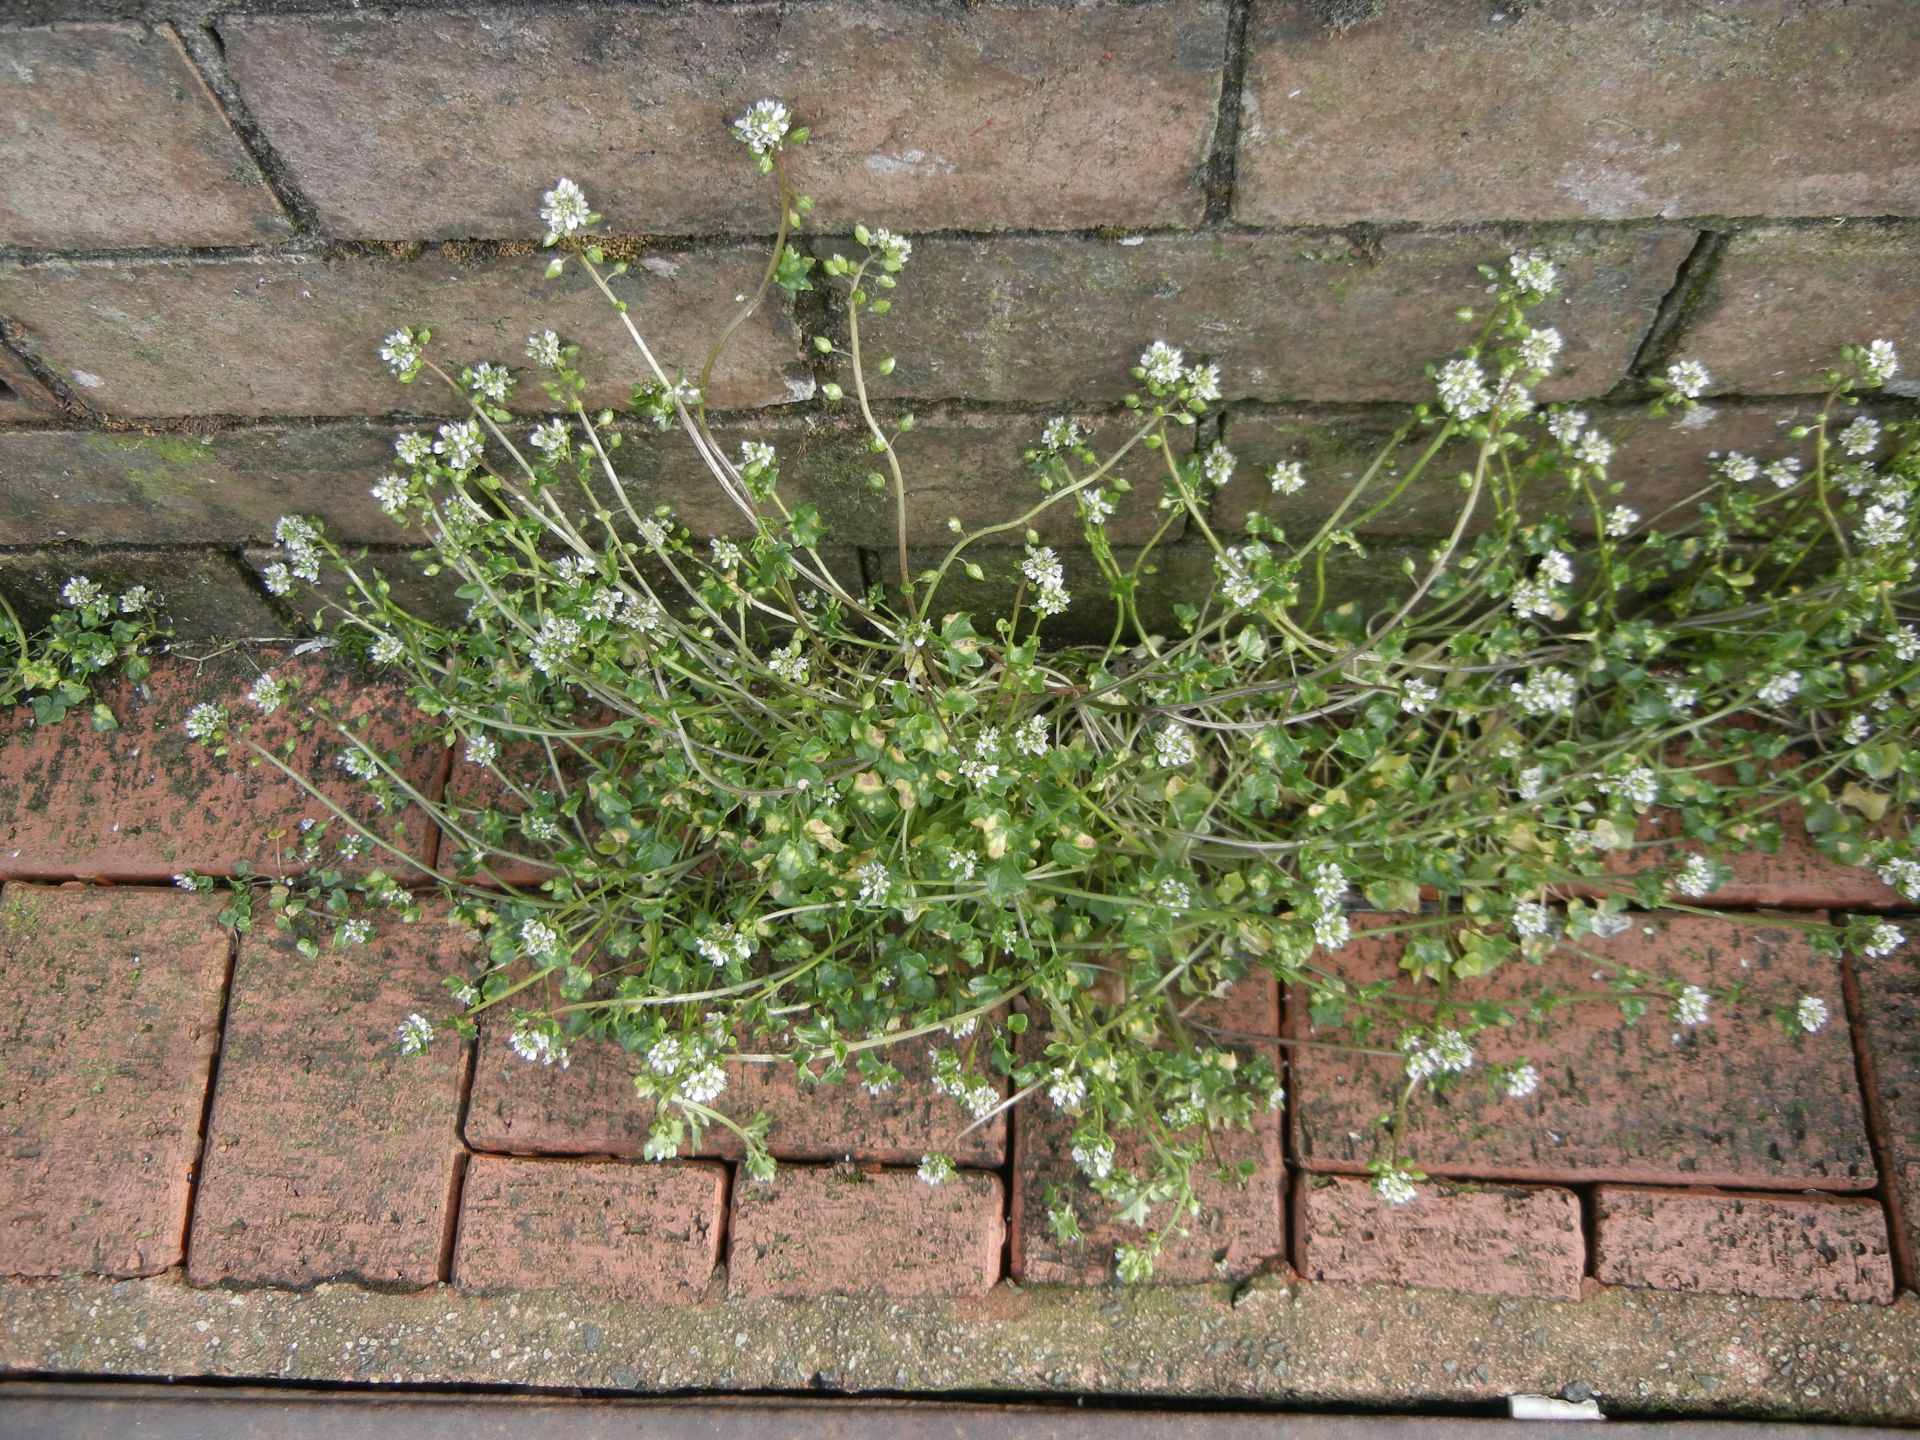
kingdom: Plantae
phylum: Tracheophyta
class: Magnoliopsida
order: Brassicales
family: Brassicaceae
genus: Cochlearia
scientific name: Cochlearia danica
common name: Early scurvygrass
